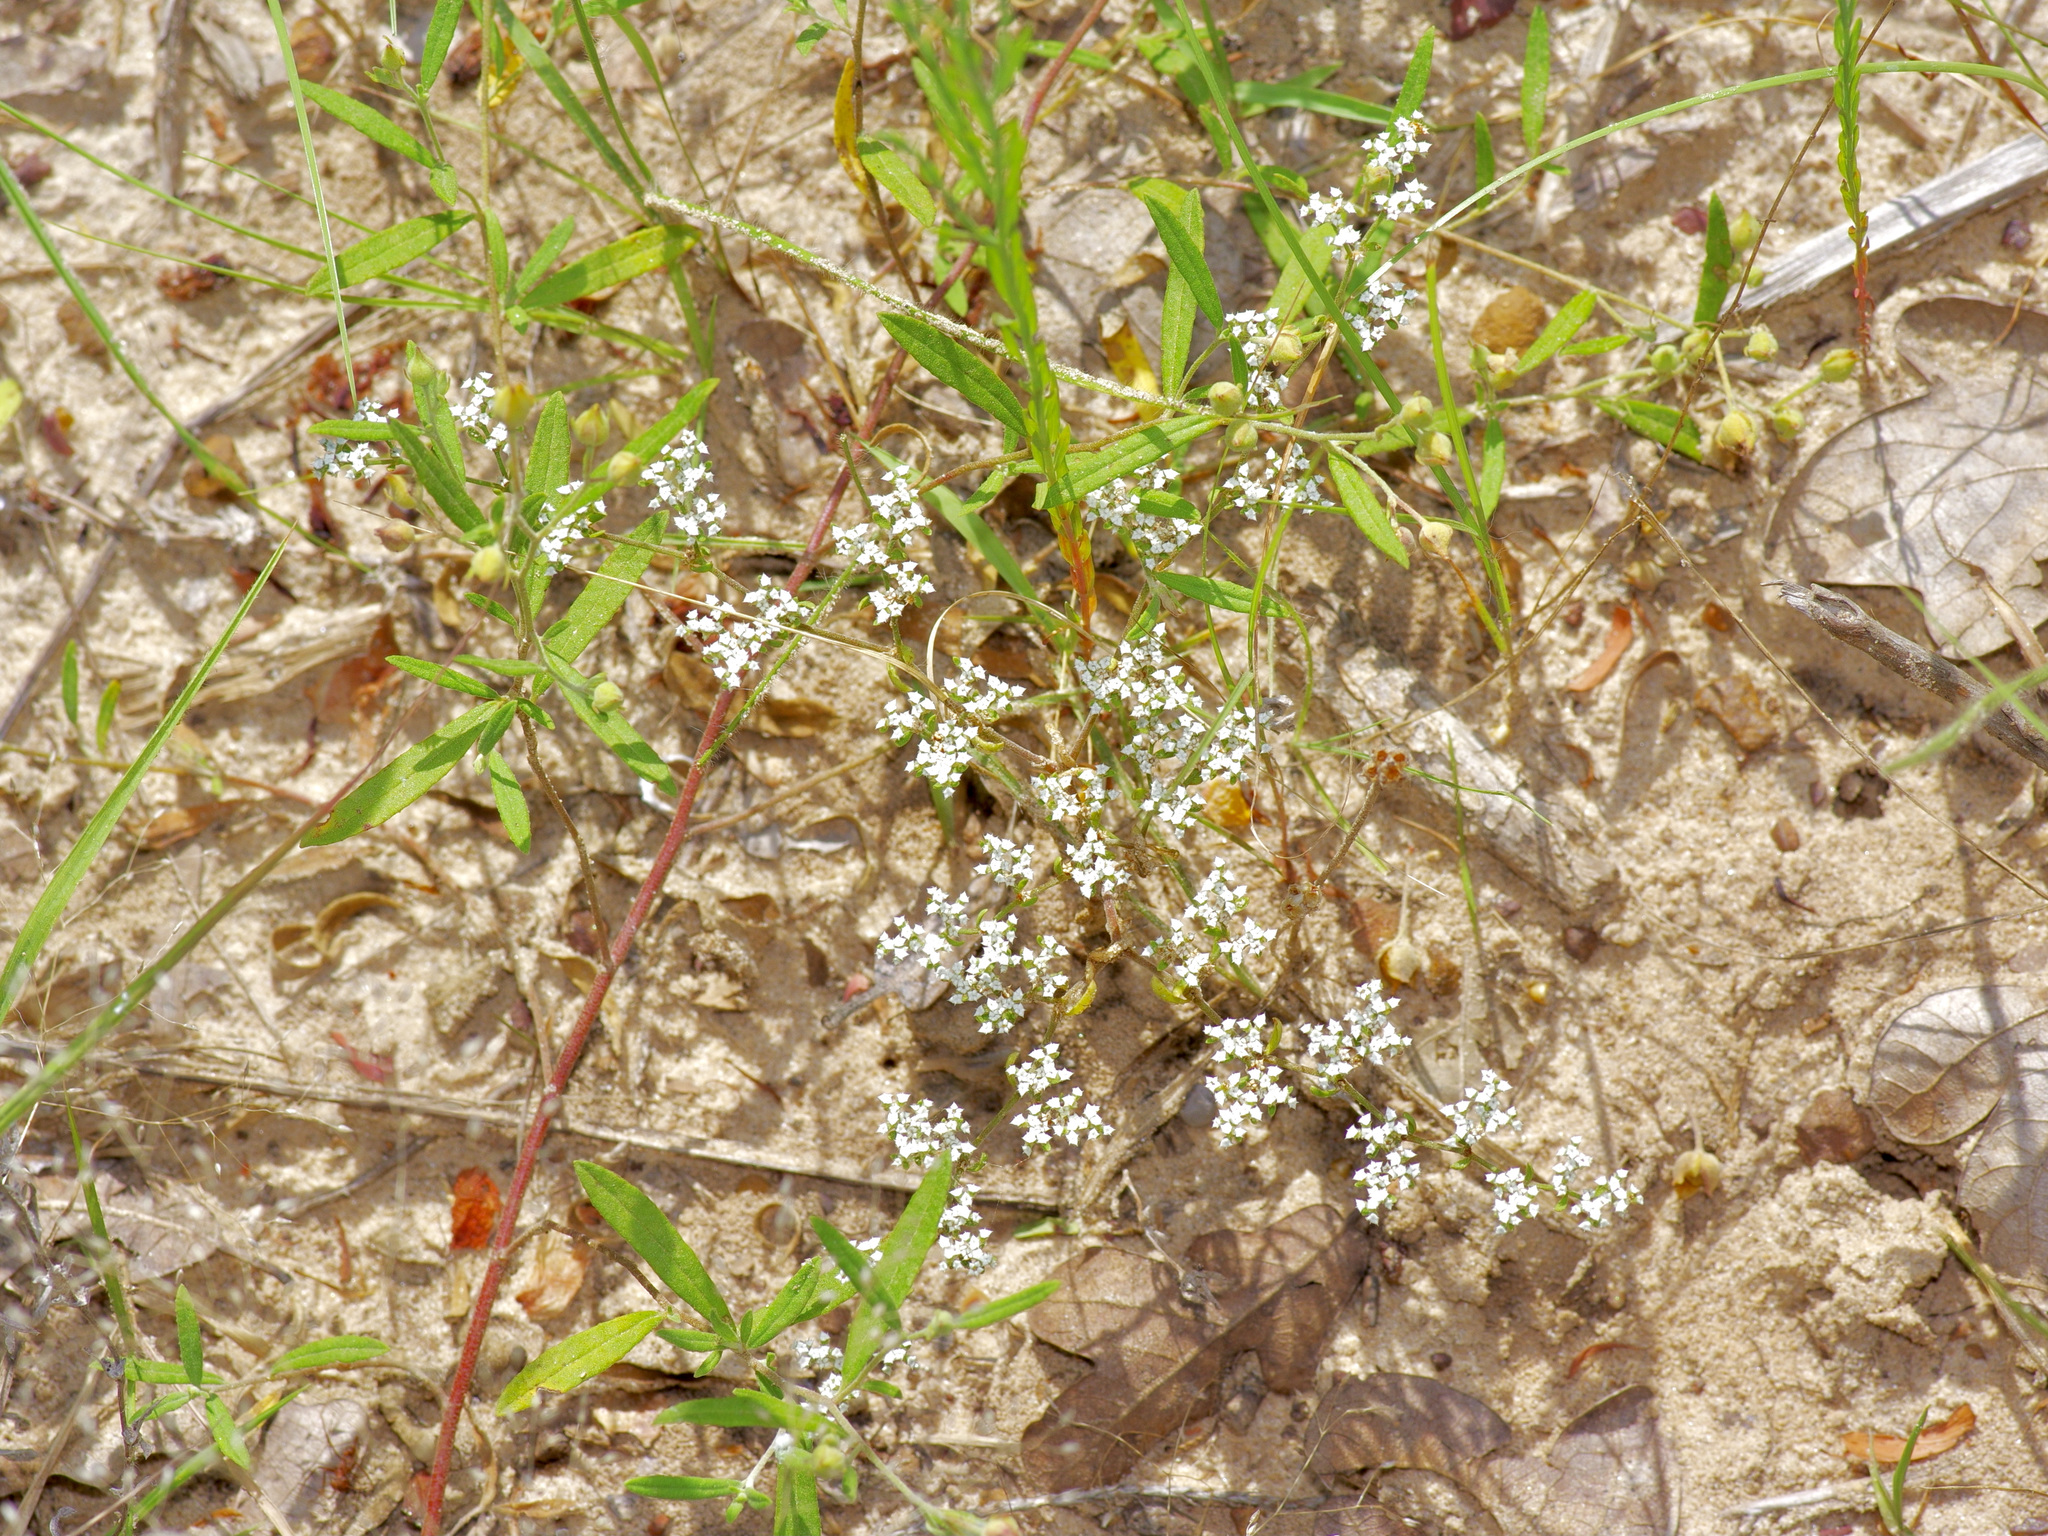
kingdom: Plantae
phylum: Tracheophyta
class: Magnoliopsida
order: Caryophyllales
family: Caryophyllaceae
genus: Paronychia
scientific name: Paronychia drummondii
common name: Drummond's nailwort
